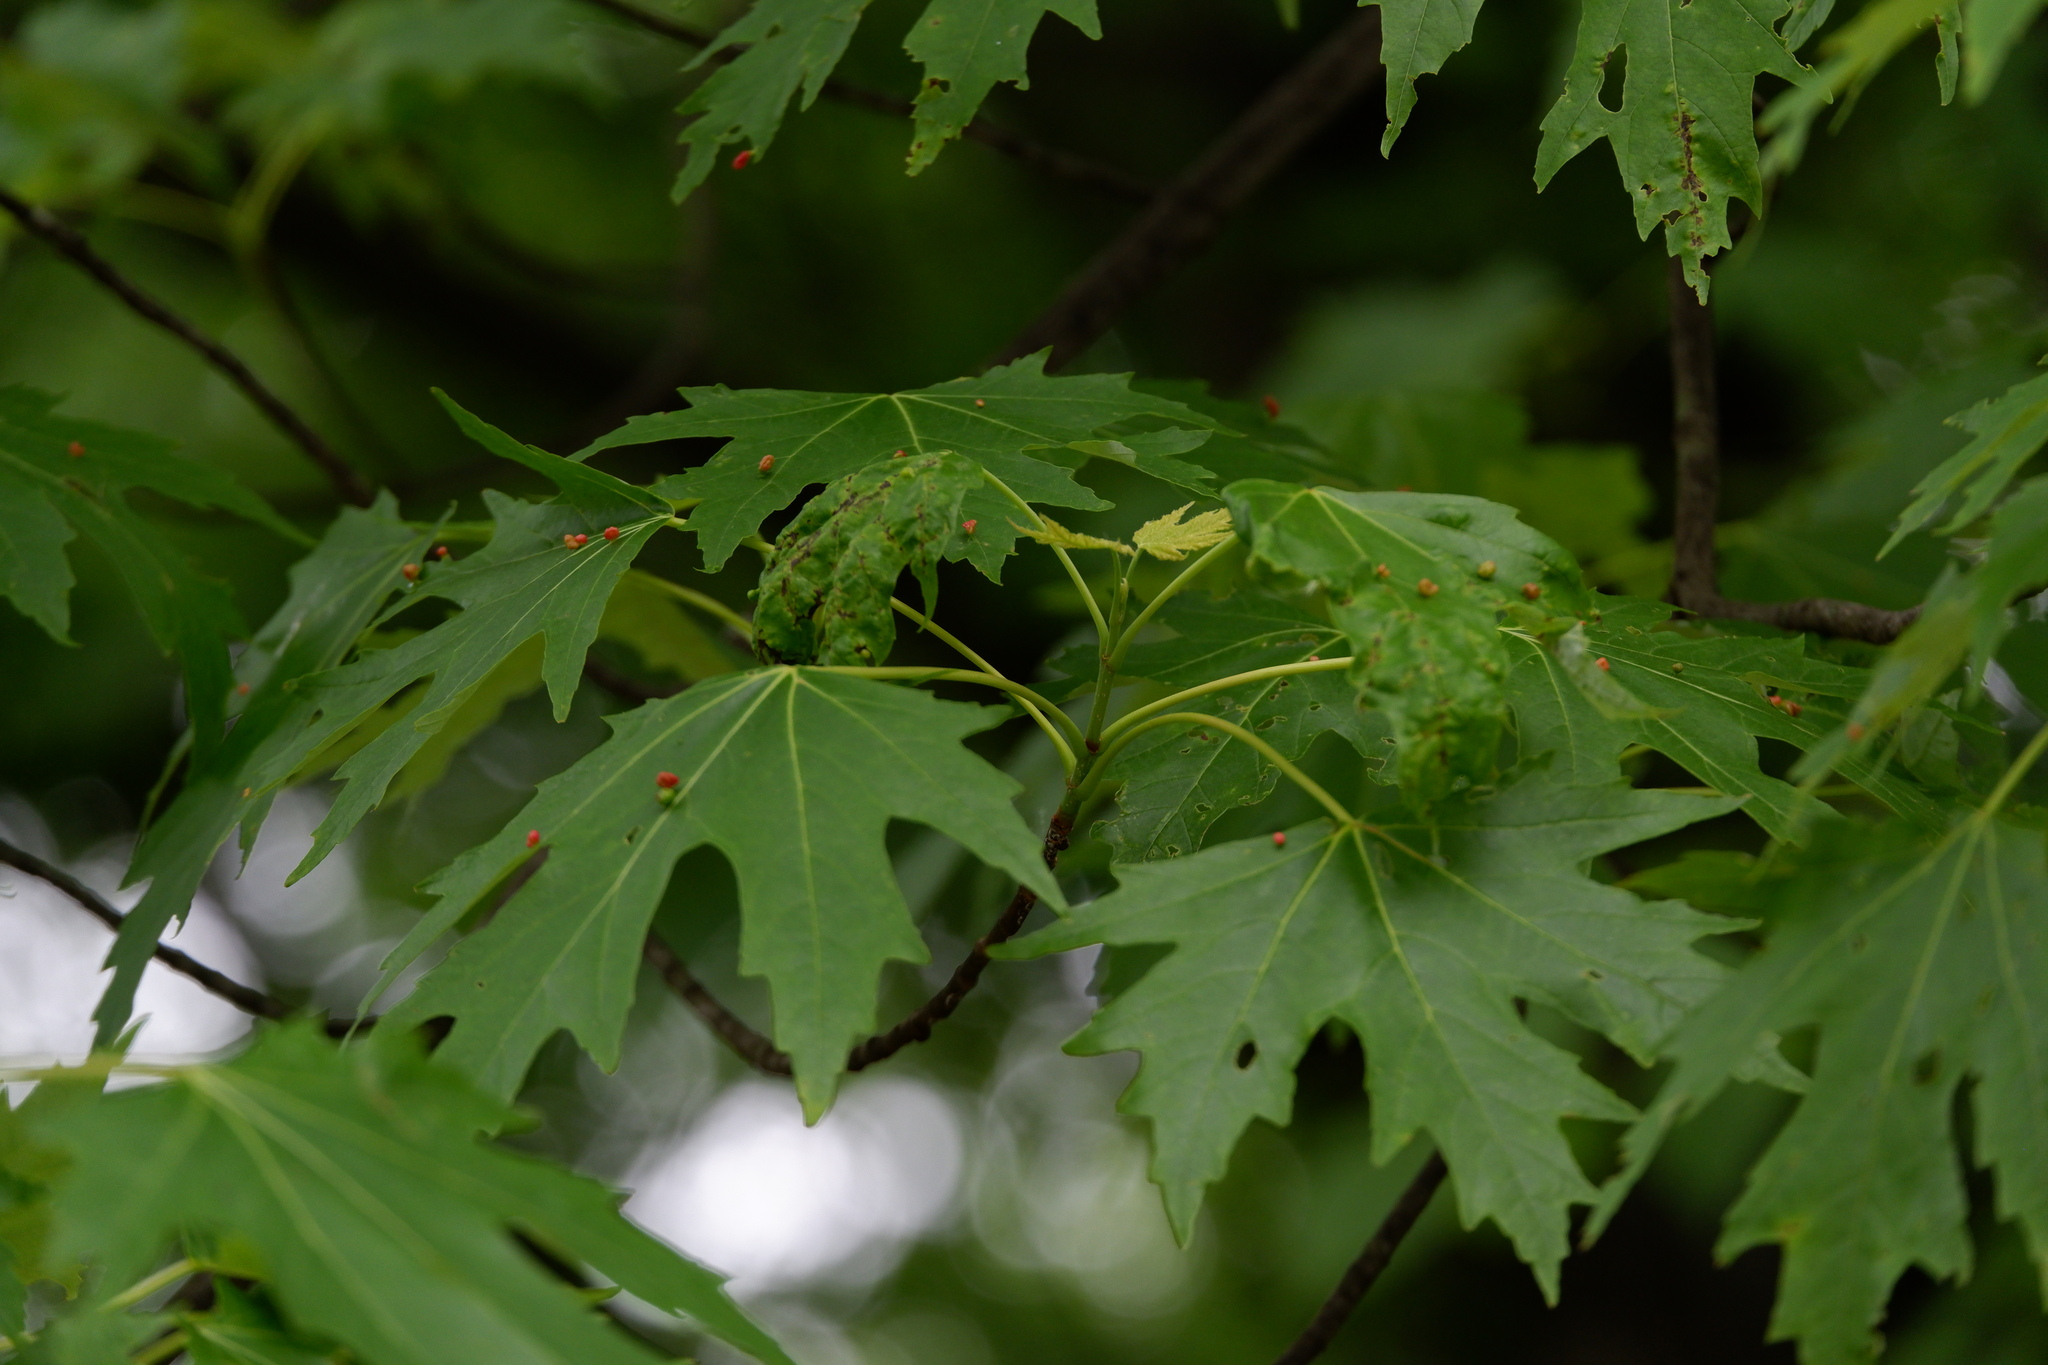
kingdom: Animalia
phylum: Arthropoda
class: Arachnida
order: Trombidiformes
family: Eriophyidae
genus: Vasates
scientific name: Vasates quadripedes
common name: Maple bladder gall mite
